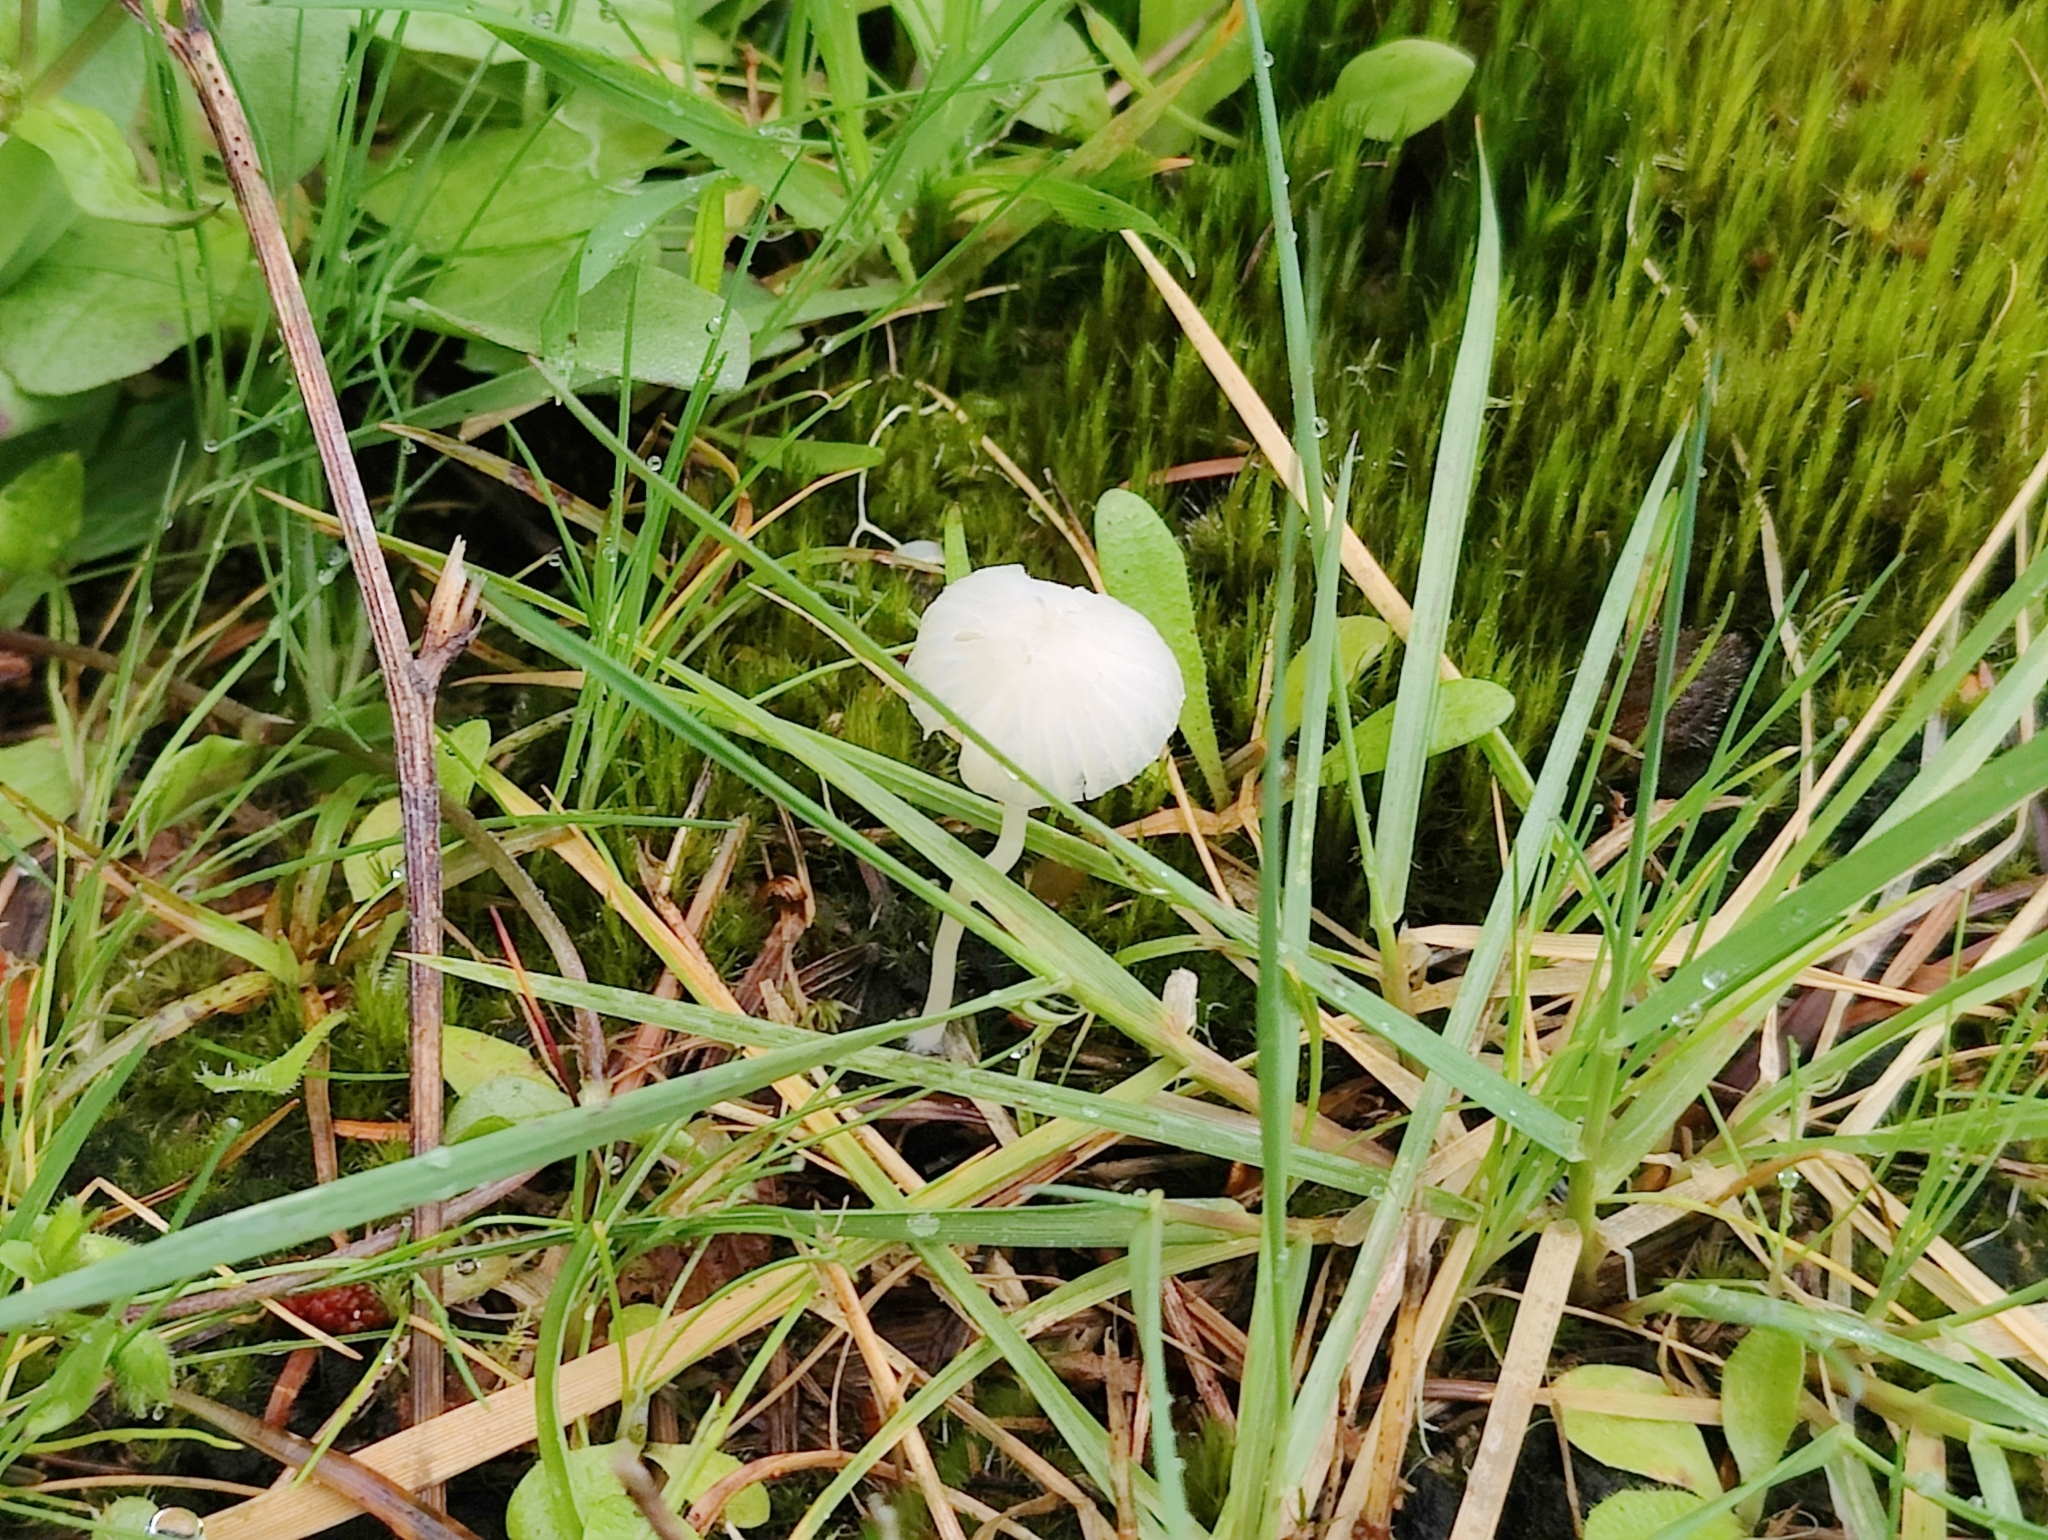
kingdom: Fungi
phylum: Basidiomycota
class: Agaricomycetes
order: Agaricales
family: Mycenaceae
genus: Atheniella
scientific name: Atheniella flavoalba
